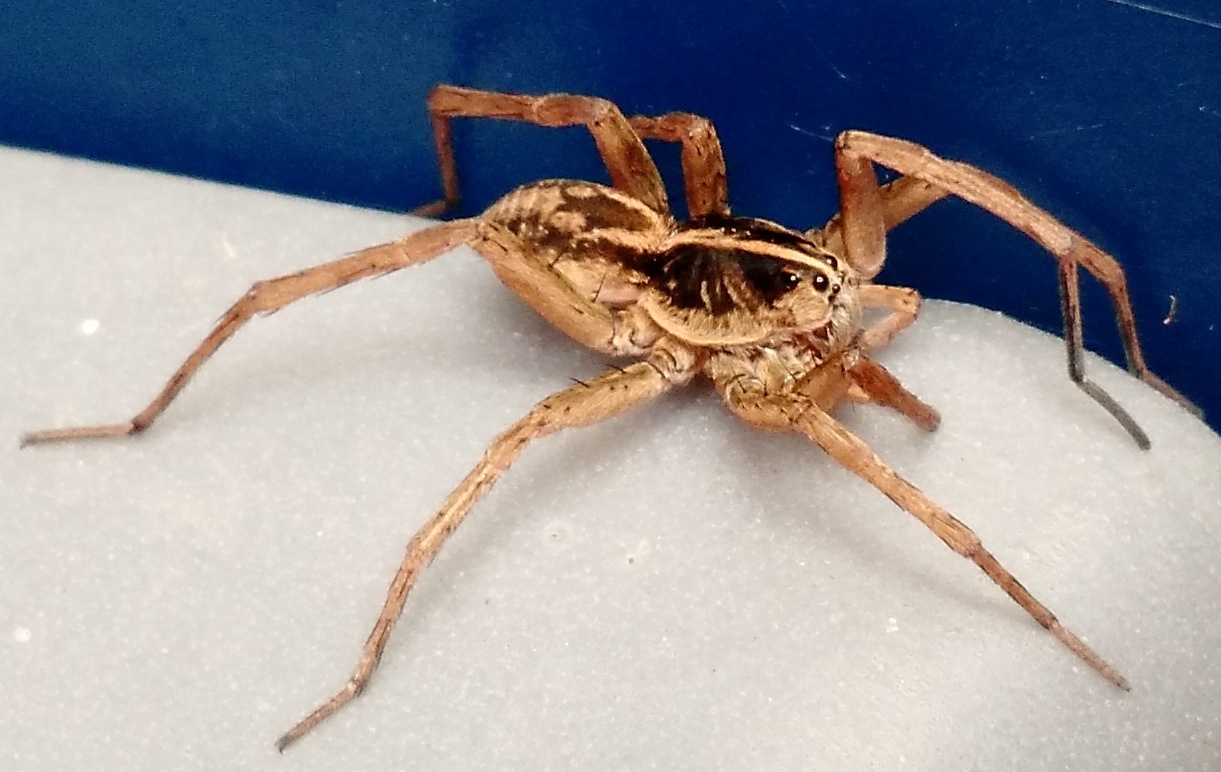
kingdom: Animalia
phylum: Arthropoda
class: Arachnida
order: Araneae
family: Lycosidae
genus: Tigrosa
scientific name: Tigrosa helluo
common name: Wetland giant wolf spider
